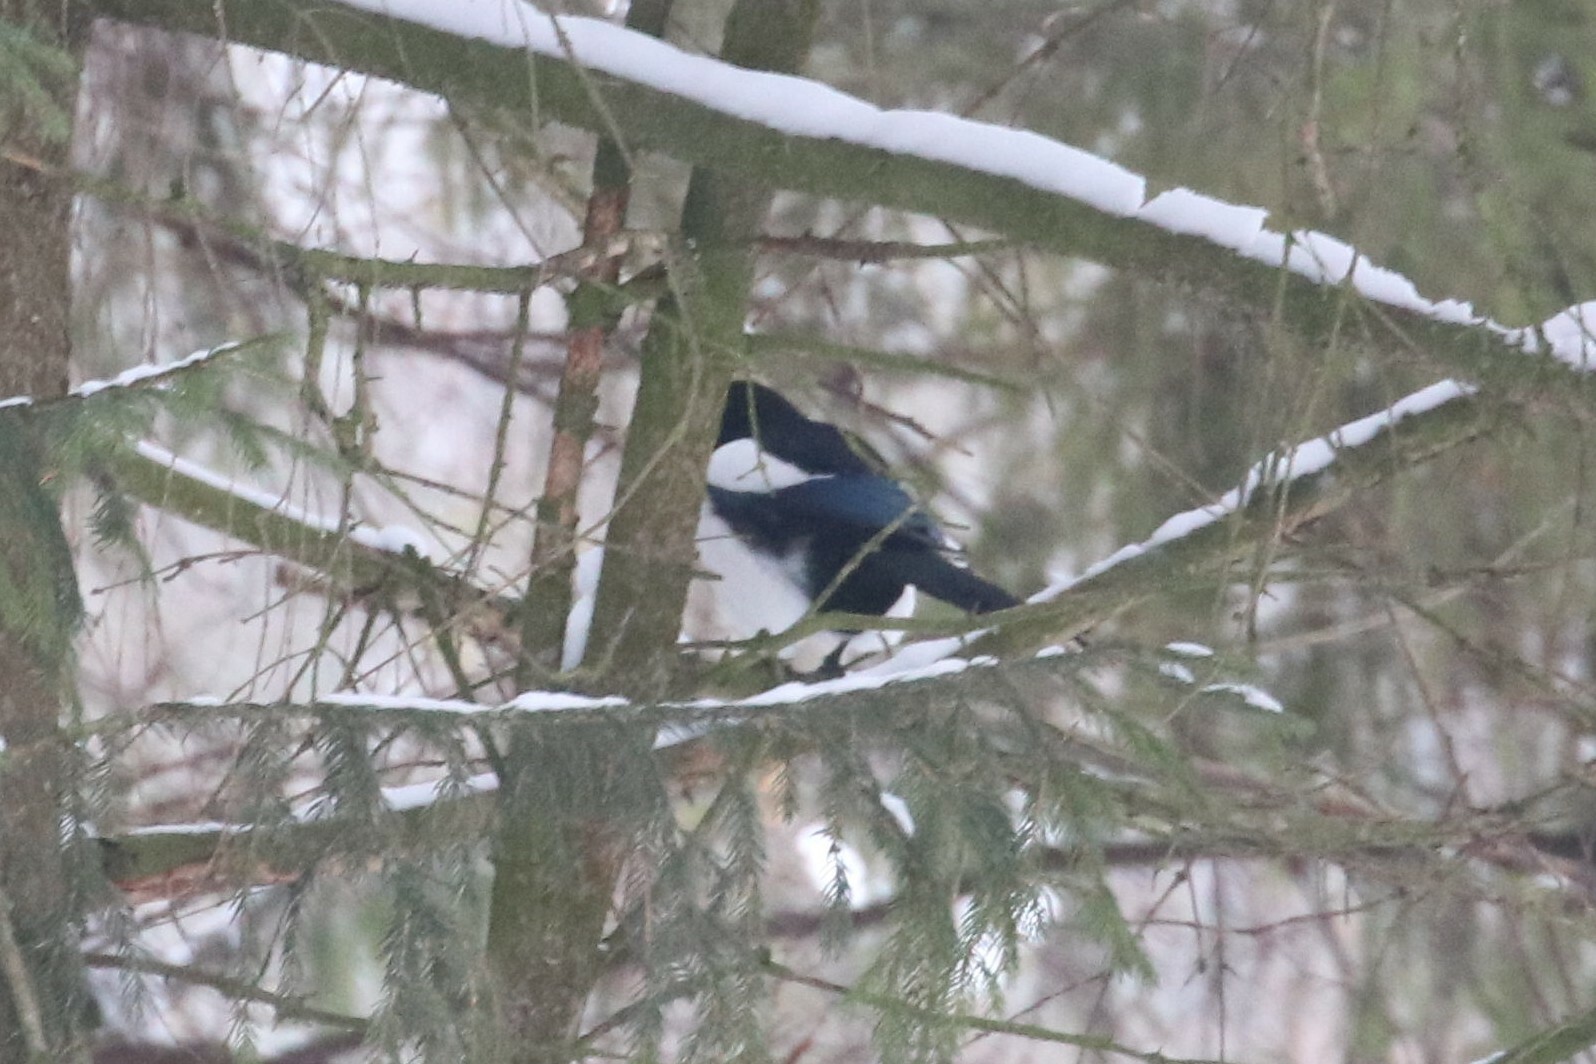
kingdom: Animalia
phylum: Chordata
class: Aves
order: Passeriformes
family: Corvidae
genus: Pica
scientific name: Pica pica
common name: Eurasian magpie
